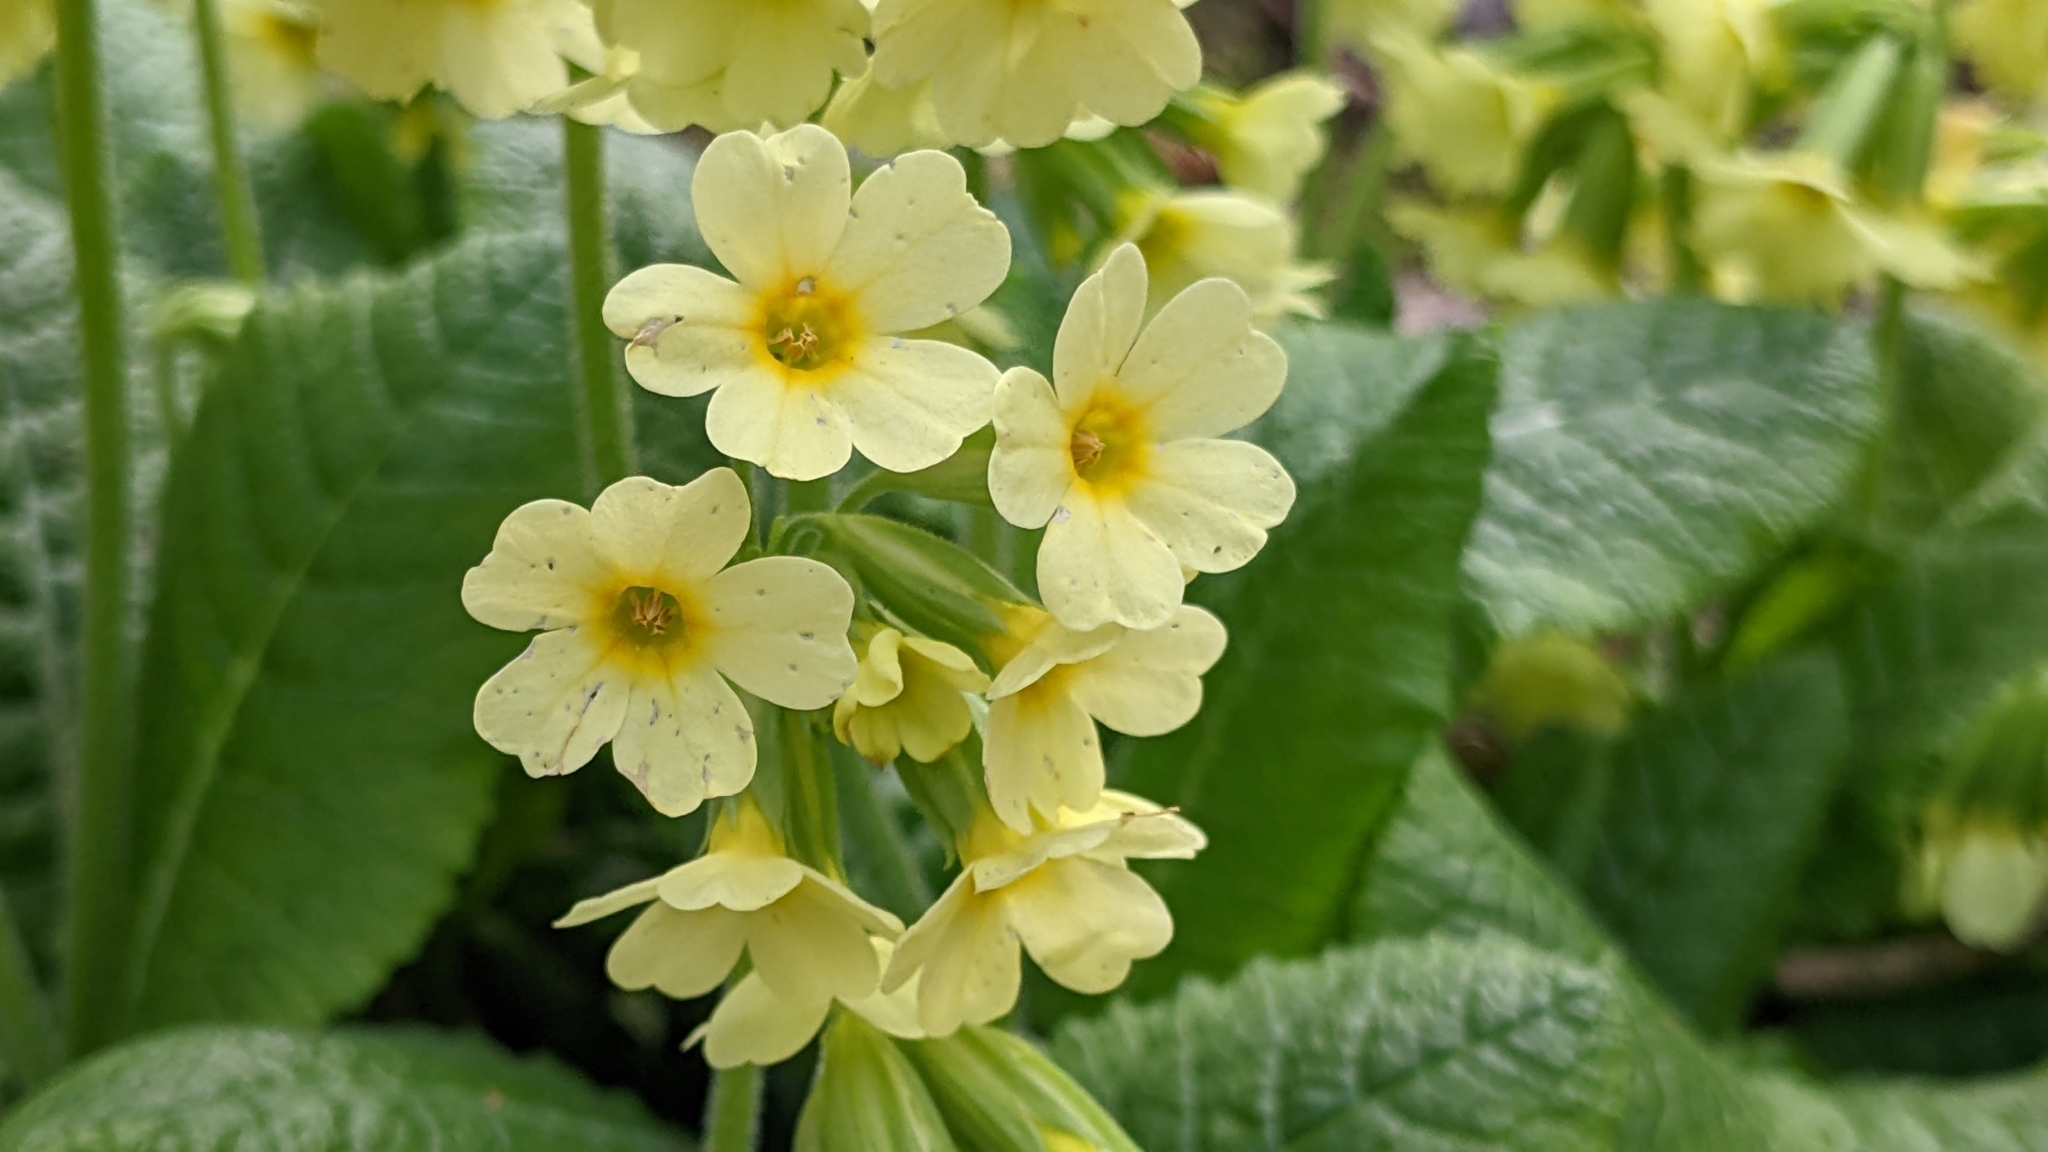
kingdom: Plantae
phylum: Tracheophyta
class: Magnoliopsida
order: Ericales
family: Primulaceae
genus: Primula
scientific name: Primula elatior
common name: Oxlip
